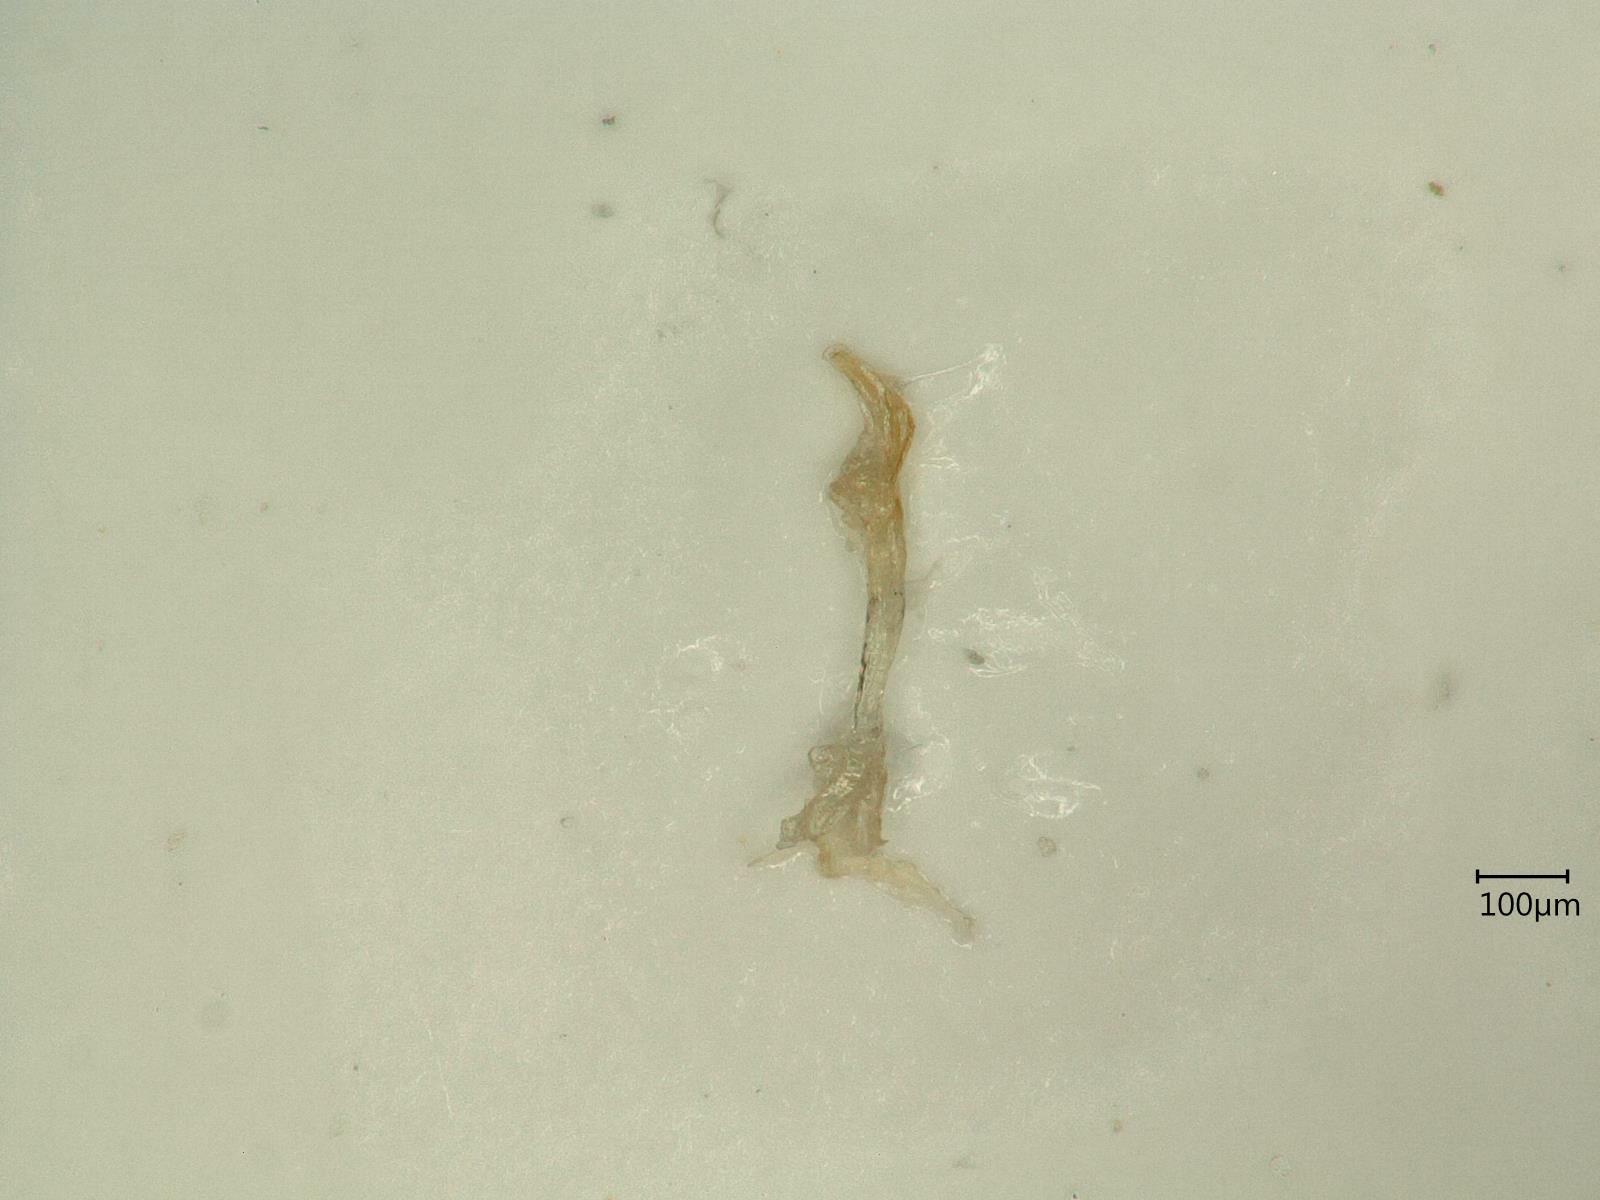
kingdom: Animalia
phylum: Arthropoda
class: Insecta
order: Hemiptera
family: Cicadellidae
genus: Kybos
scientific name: Kybos rufescens
